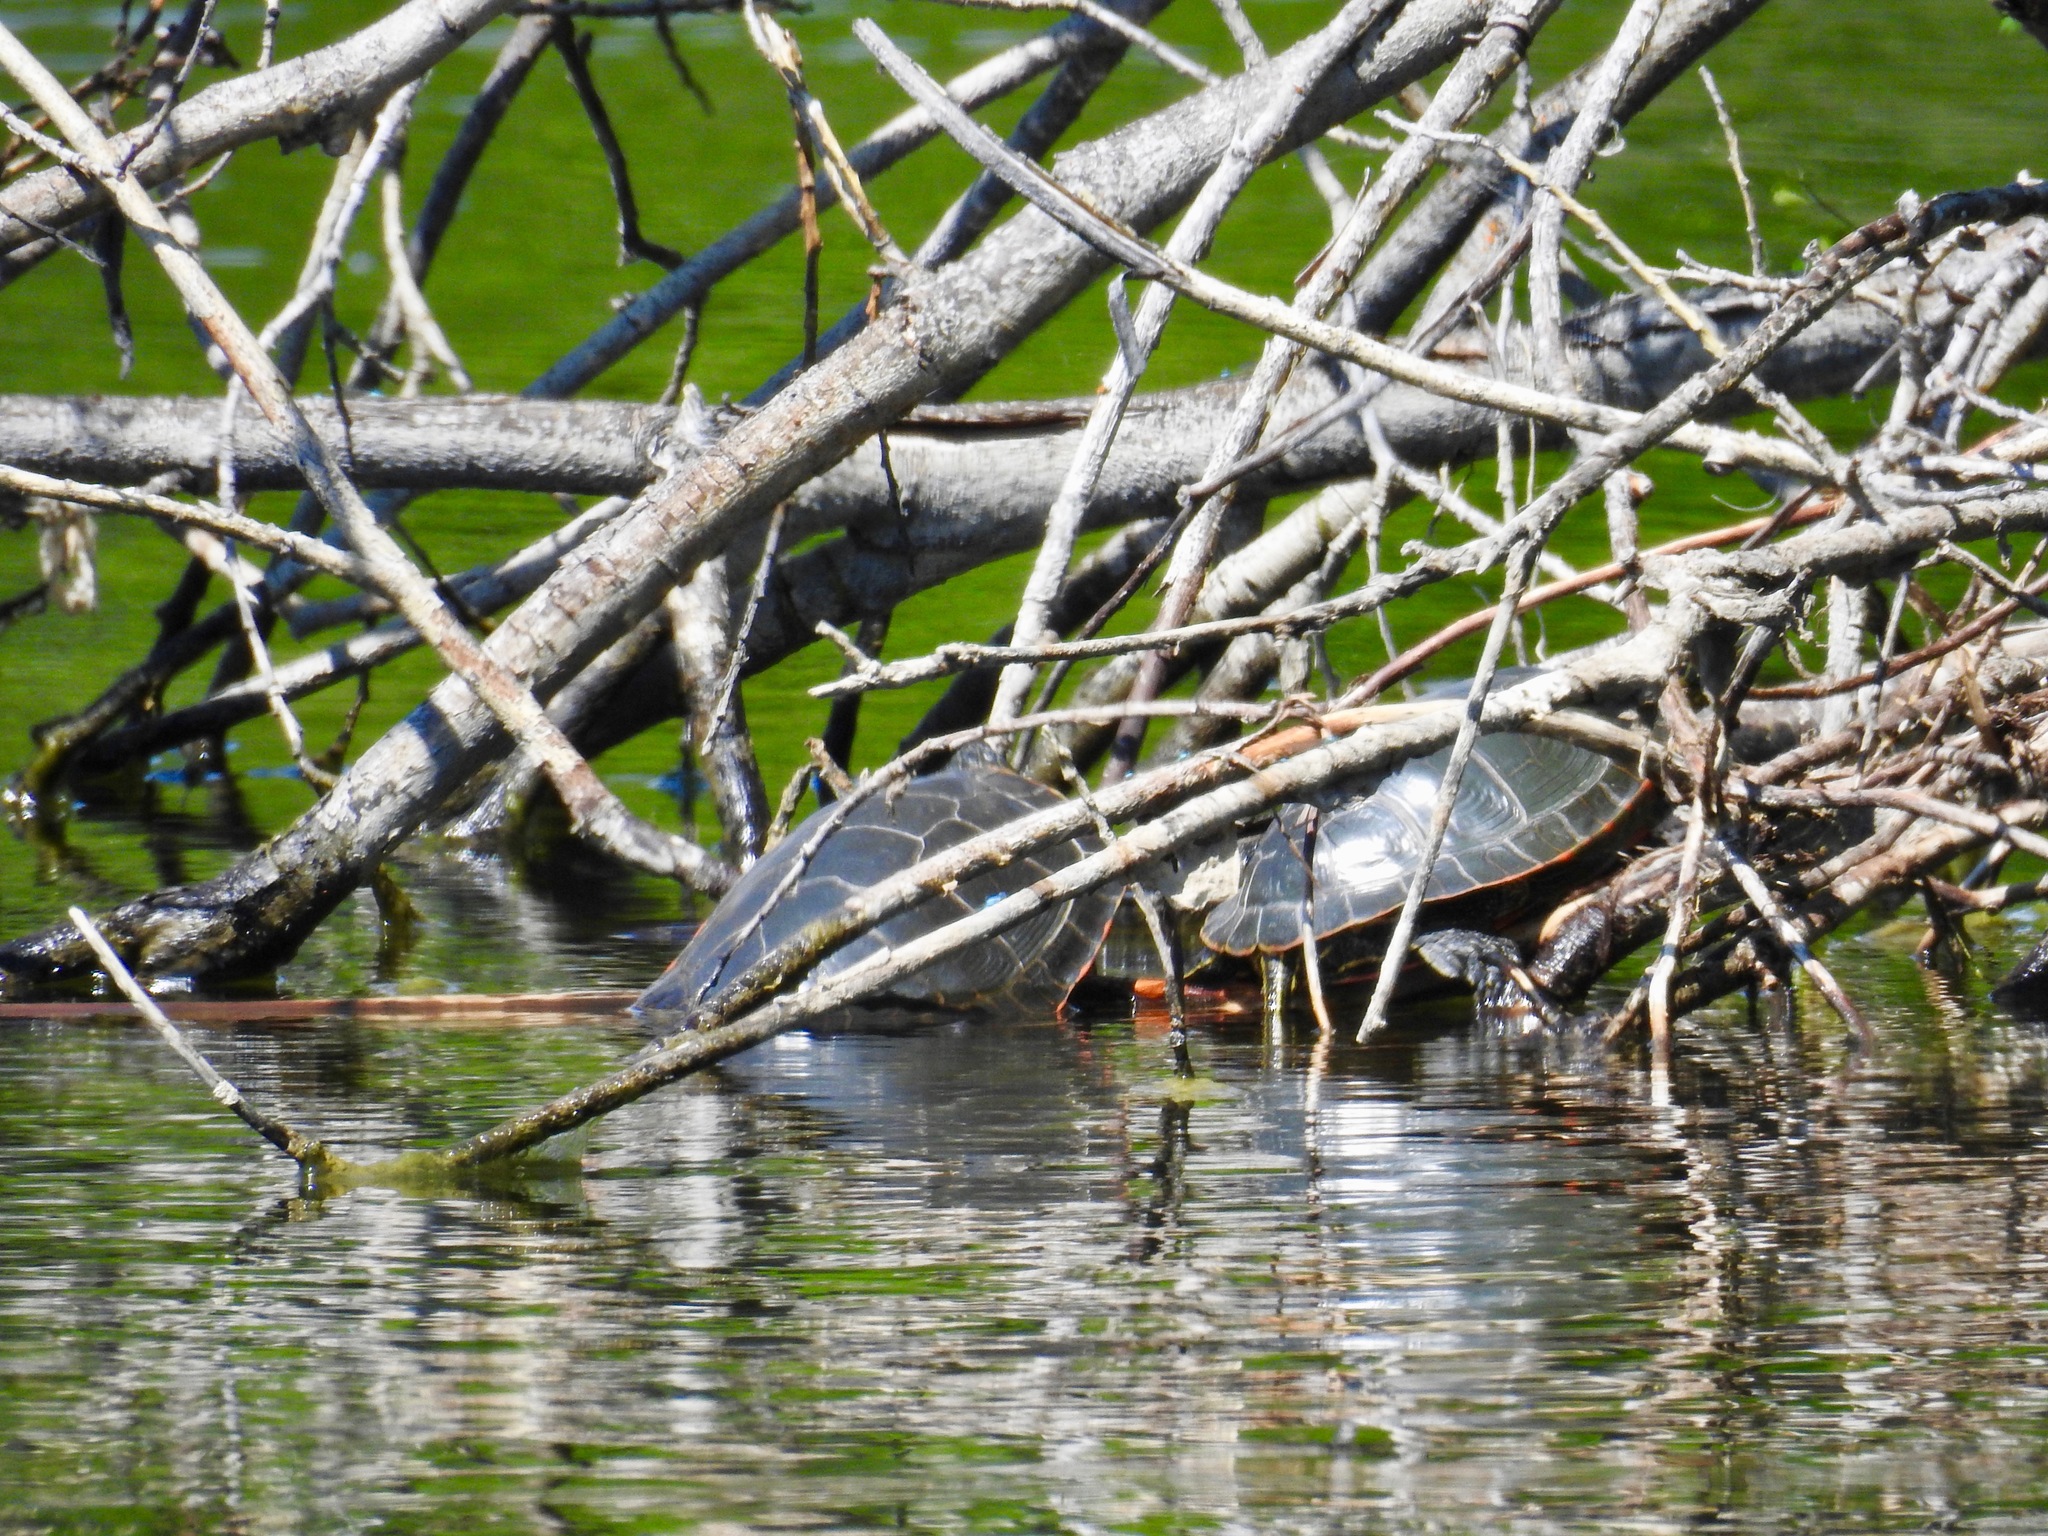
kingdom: Animalia
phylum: Chordata
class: Testudines
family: Emydidae
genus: Chrysemys
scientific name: Chrysemys picta
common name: Painted turtle
